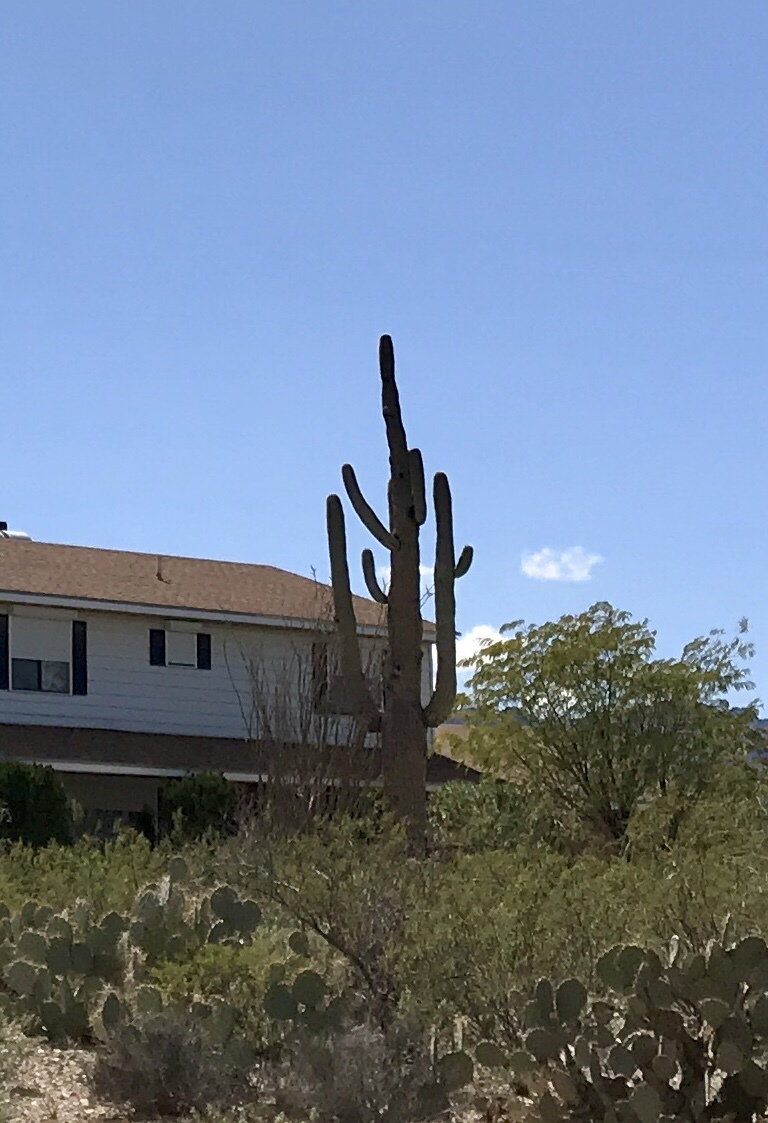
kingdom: Plantae
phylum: Tracheophyta
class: Magnoliopsida
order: Caryophyllales
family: Cactaceae
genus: Carnegiea
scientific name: Carnegiea gigantea
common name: Saguaro
